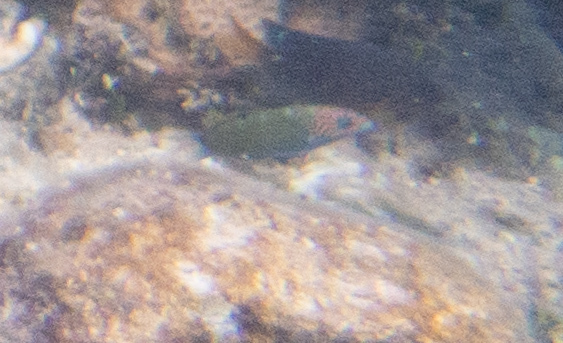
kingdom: Animalia
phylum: Chordata
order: Perciformes
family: Labridae
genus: Thalassoma
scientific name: Thalassoma lunare
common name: Blue wrasse
